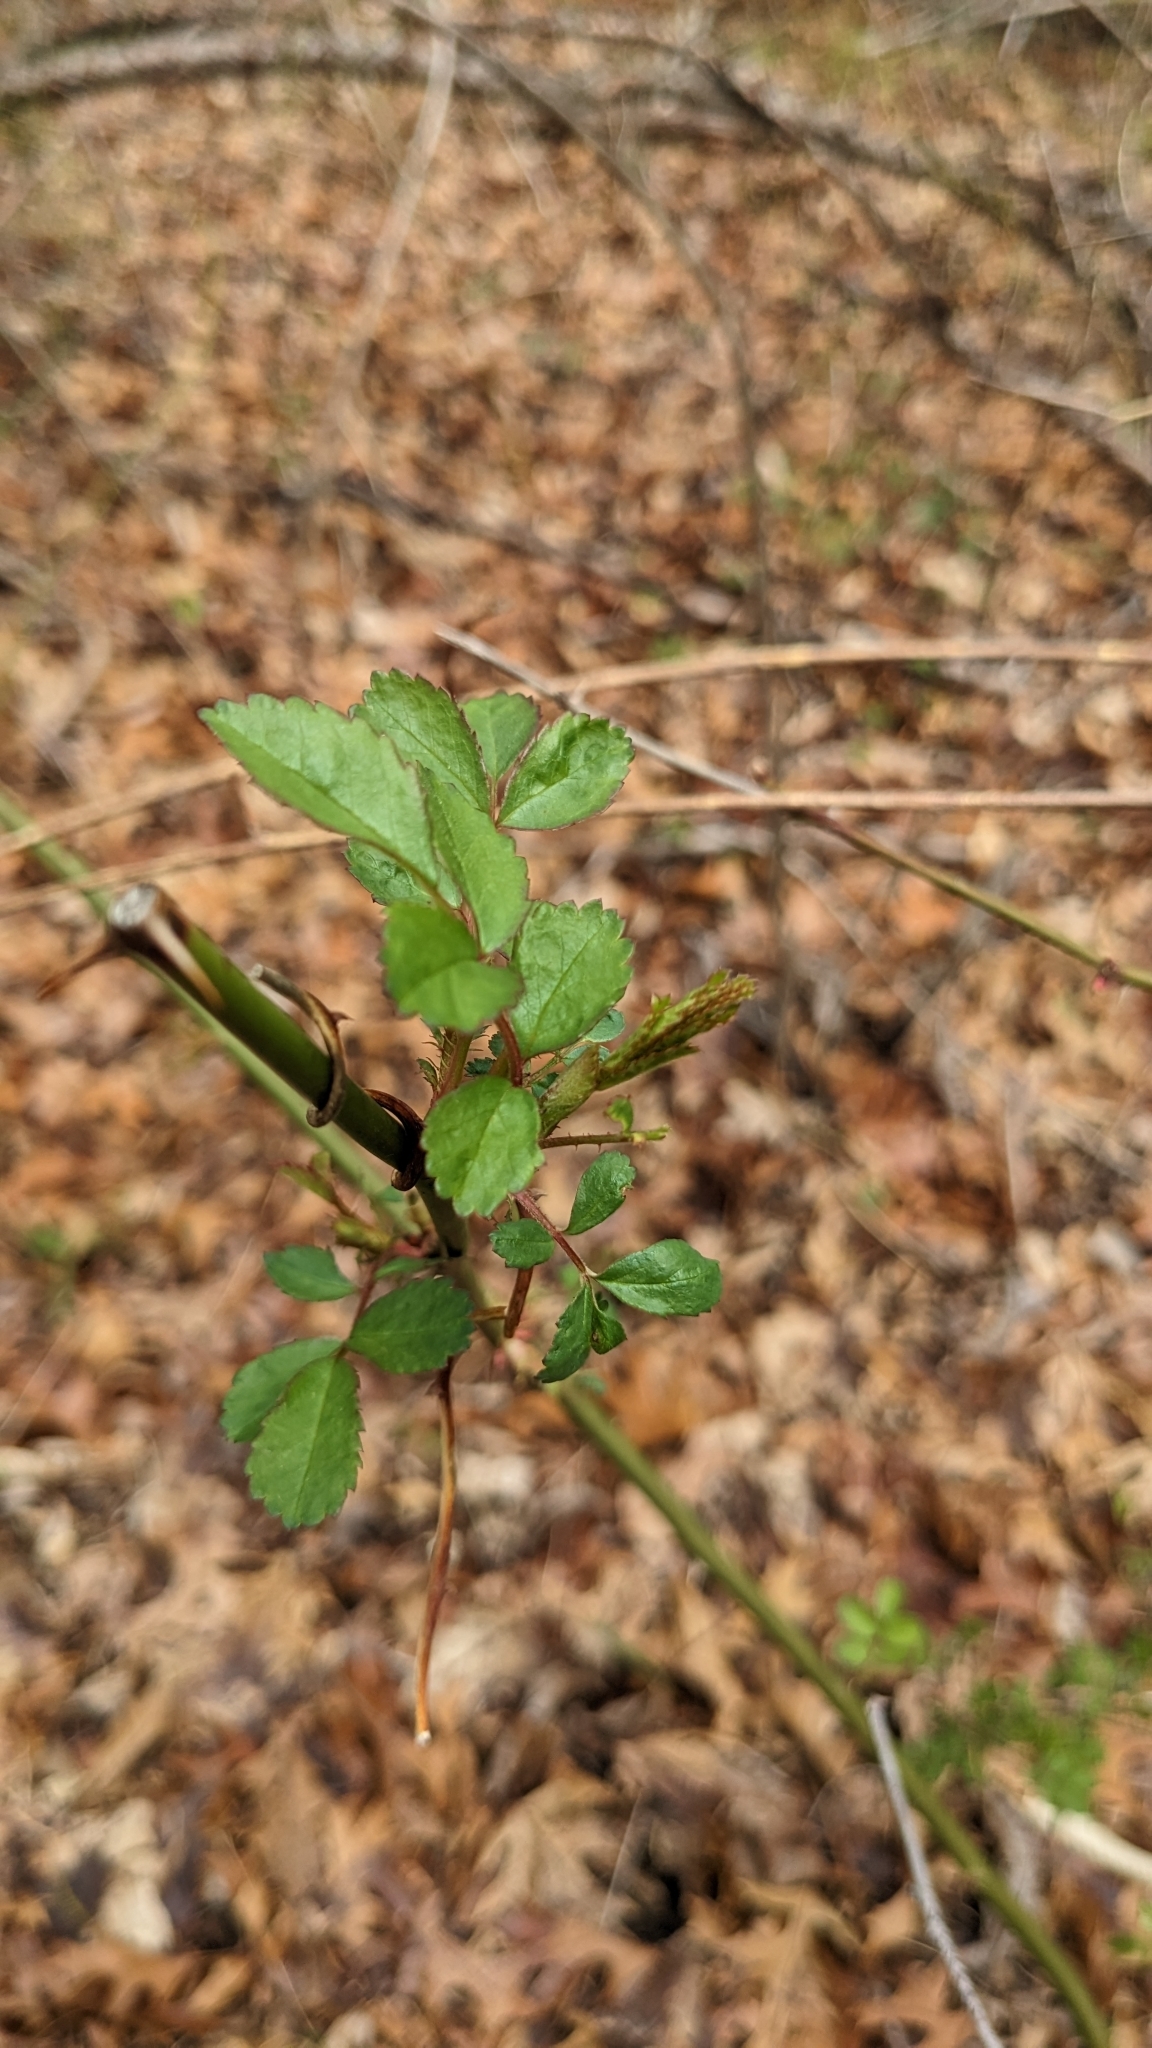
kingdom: Plantae
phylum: Tracheophyta
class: Magnoliopsida
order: Rosales
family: Rosaceae
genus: Rosa
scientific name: Rosa multiflora
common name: Multiflora rose
